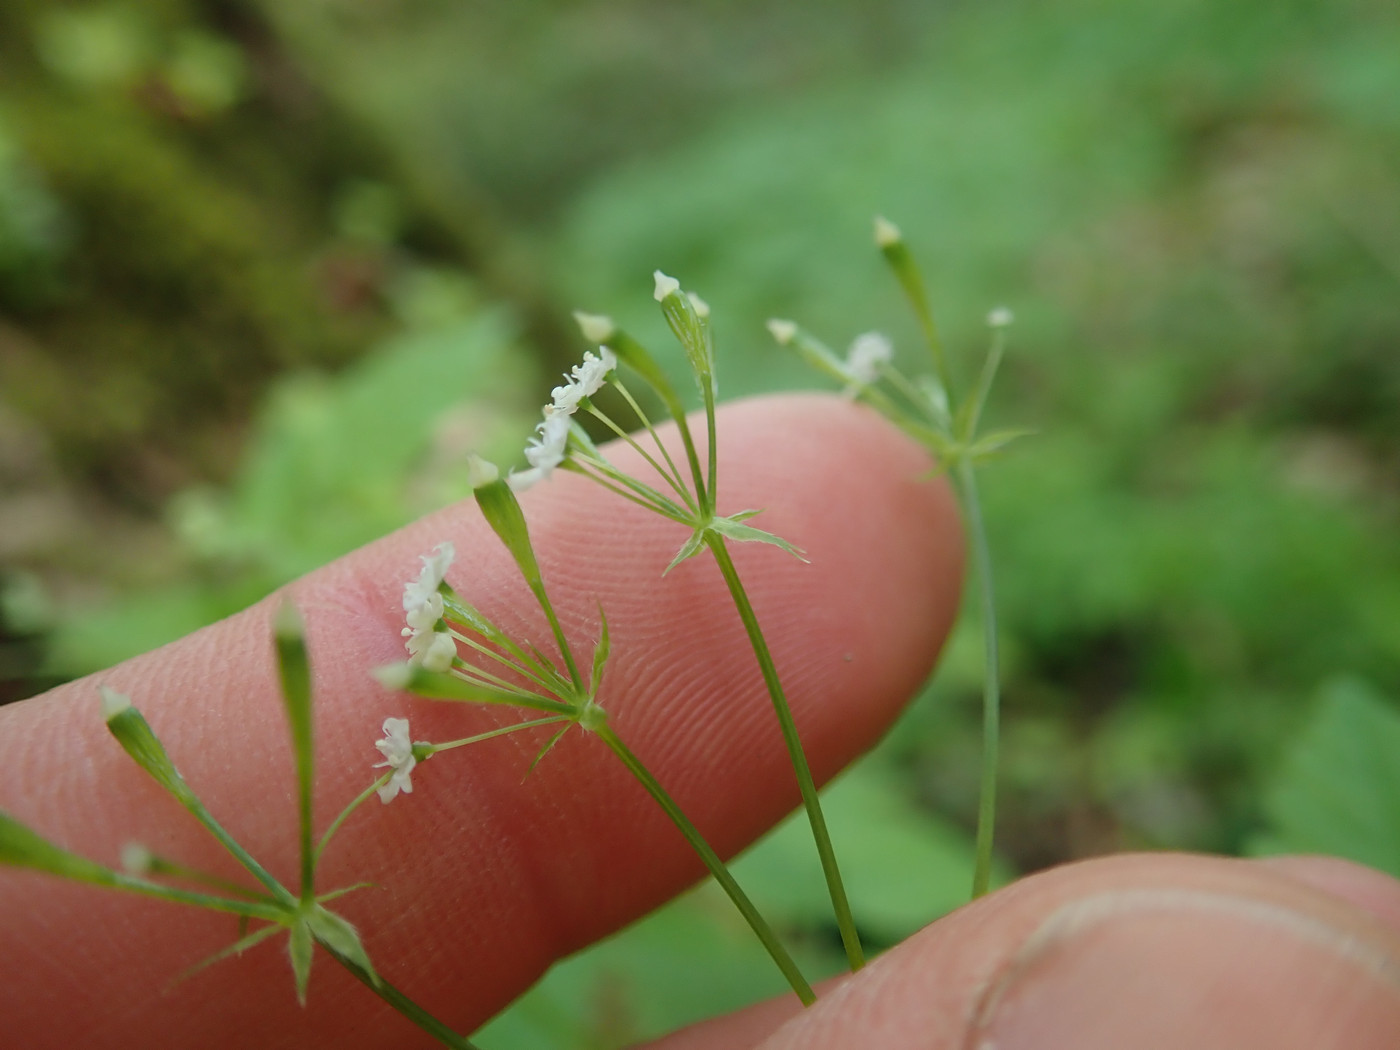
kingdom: Plantae
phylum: Tracheophyta
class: Magnoliopsida
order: Apiales
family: Apiaceae
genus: Osmorhiza
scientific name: Osmorhiza claytonii
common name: Hairy sweet cicely
